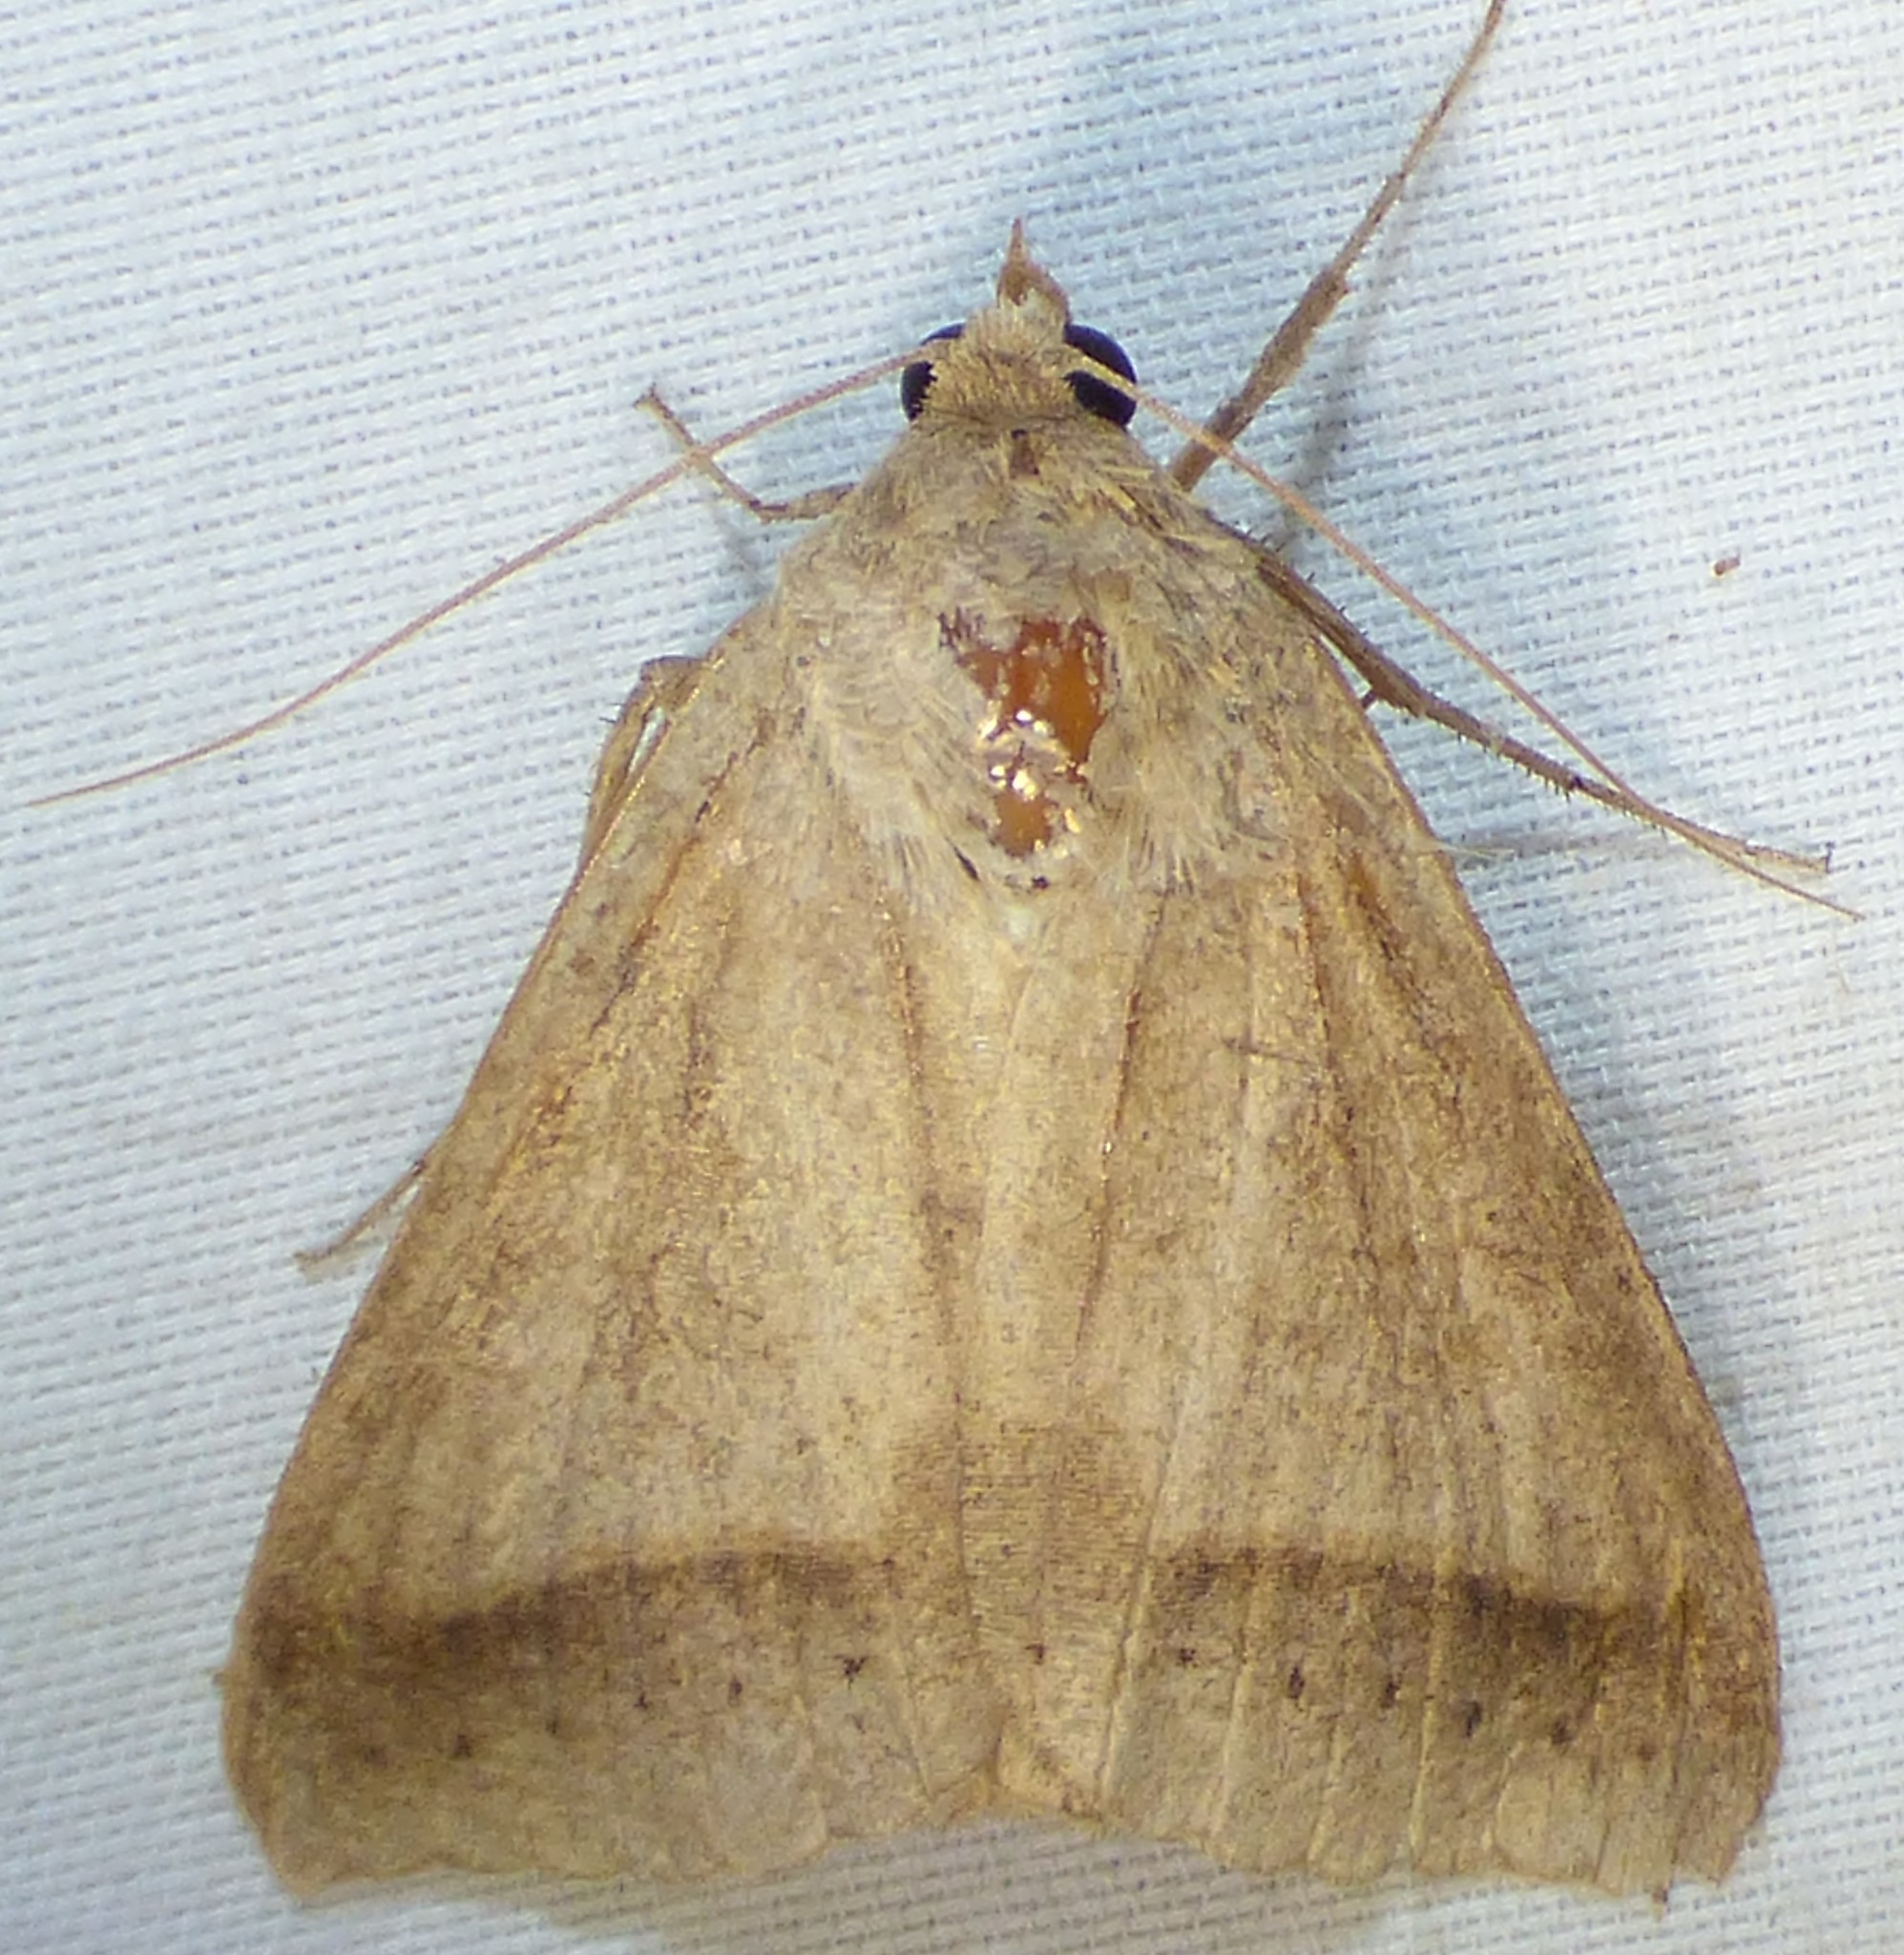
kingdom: Animalia
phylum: Arthropoda
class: Insecta
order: Lepidoptera
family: Erebidae
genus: Mocis
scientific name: Mocis marcida
